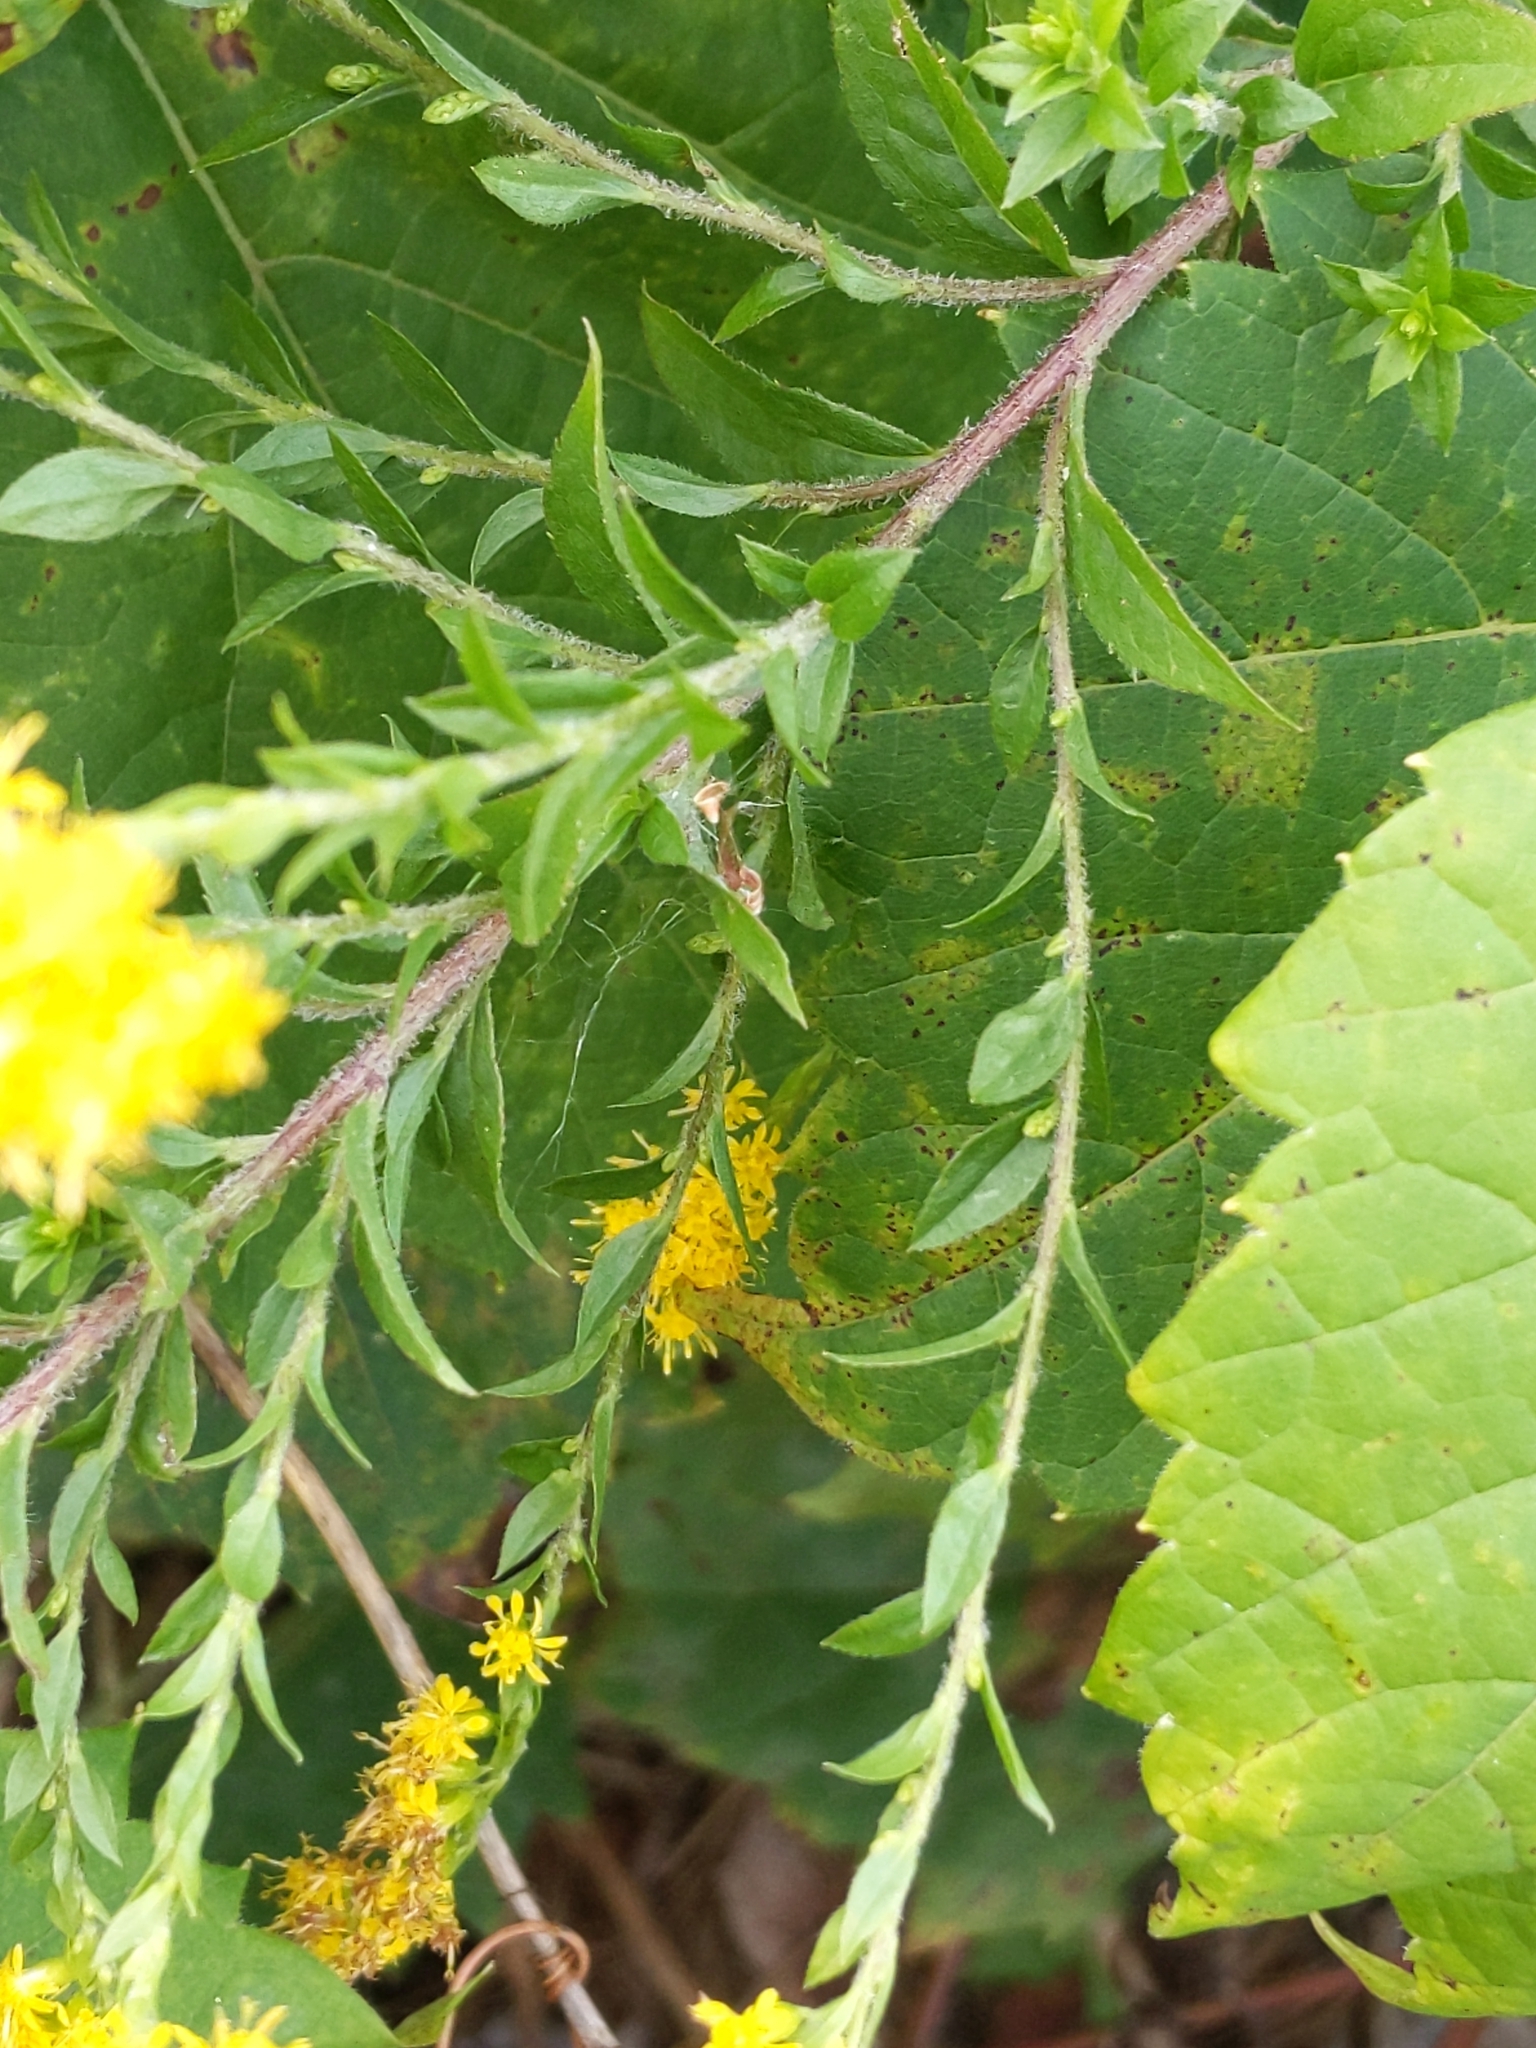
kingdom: Plantae
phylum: Tracheophyta
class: Magnoliopsida
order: Asterales
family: Asteraceae
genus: Solidago
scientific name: Solidago rugosa
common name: Rough-stemmed goldenrod
